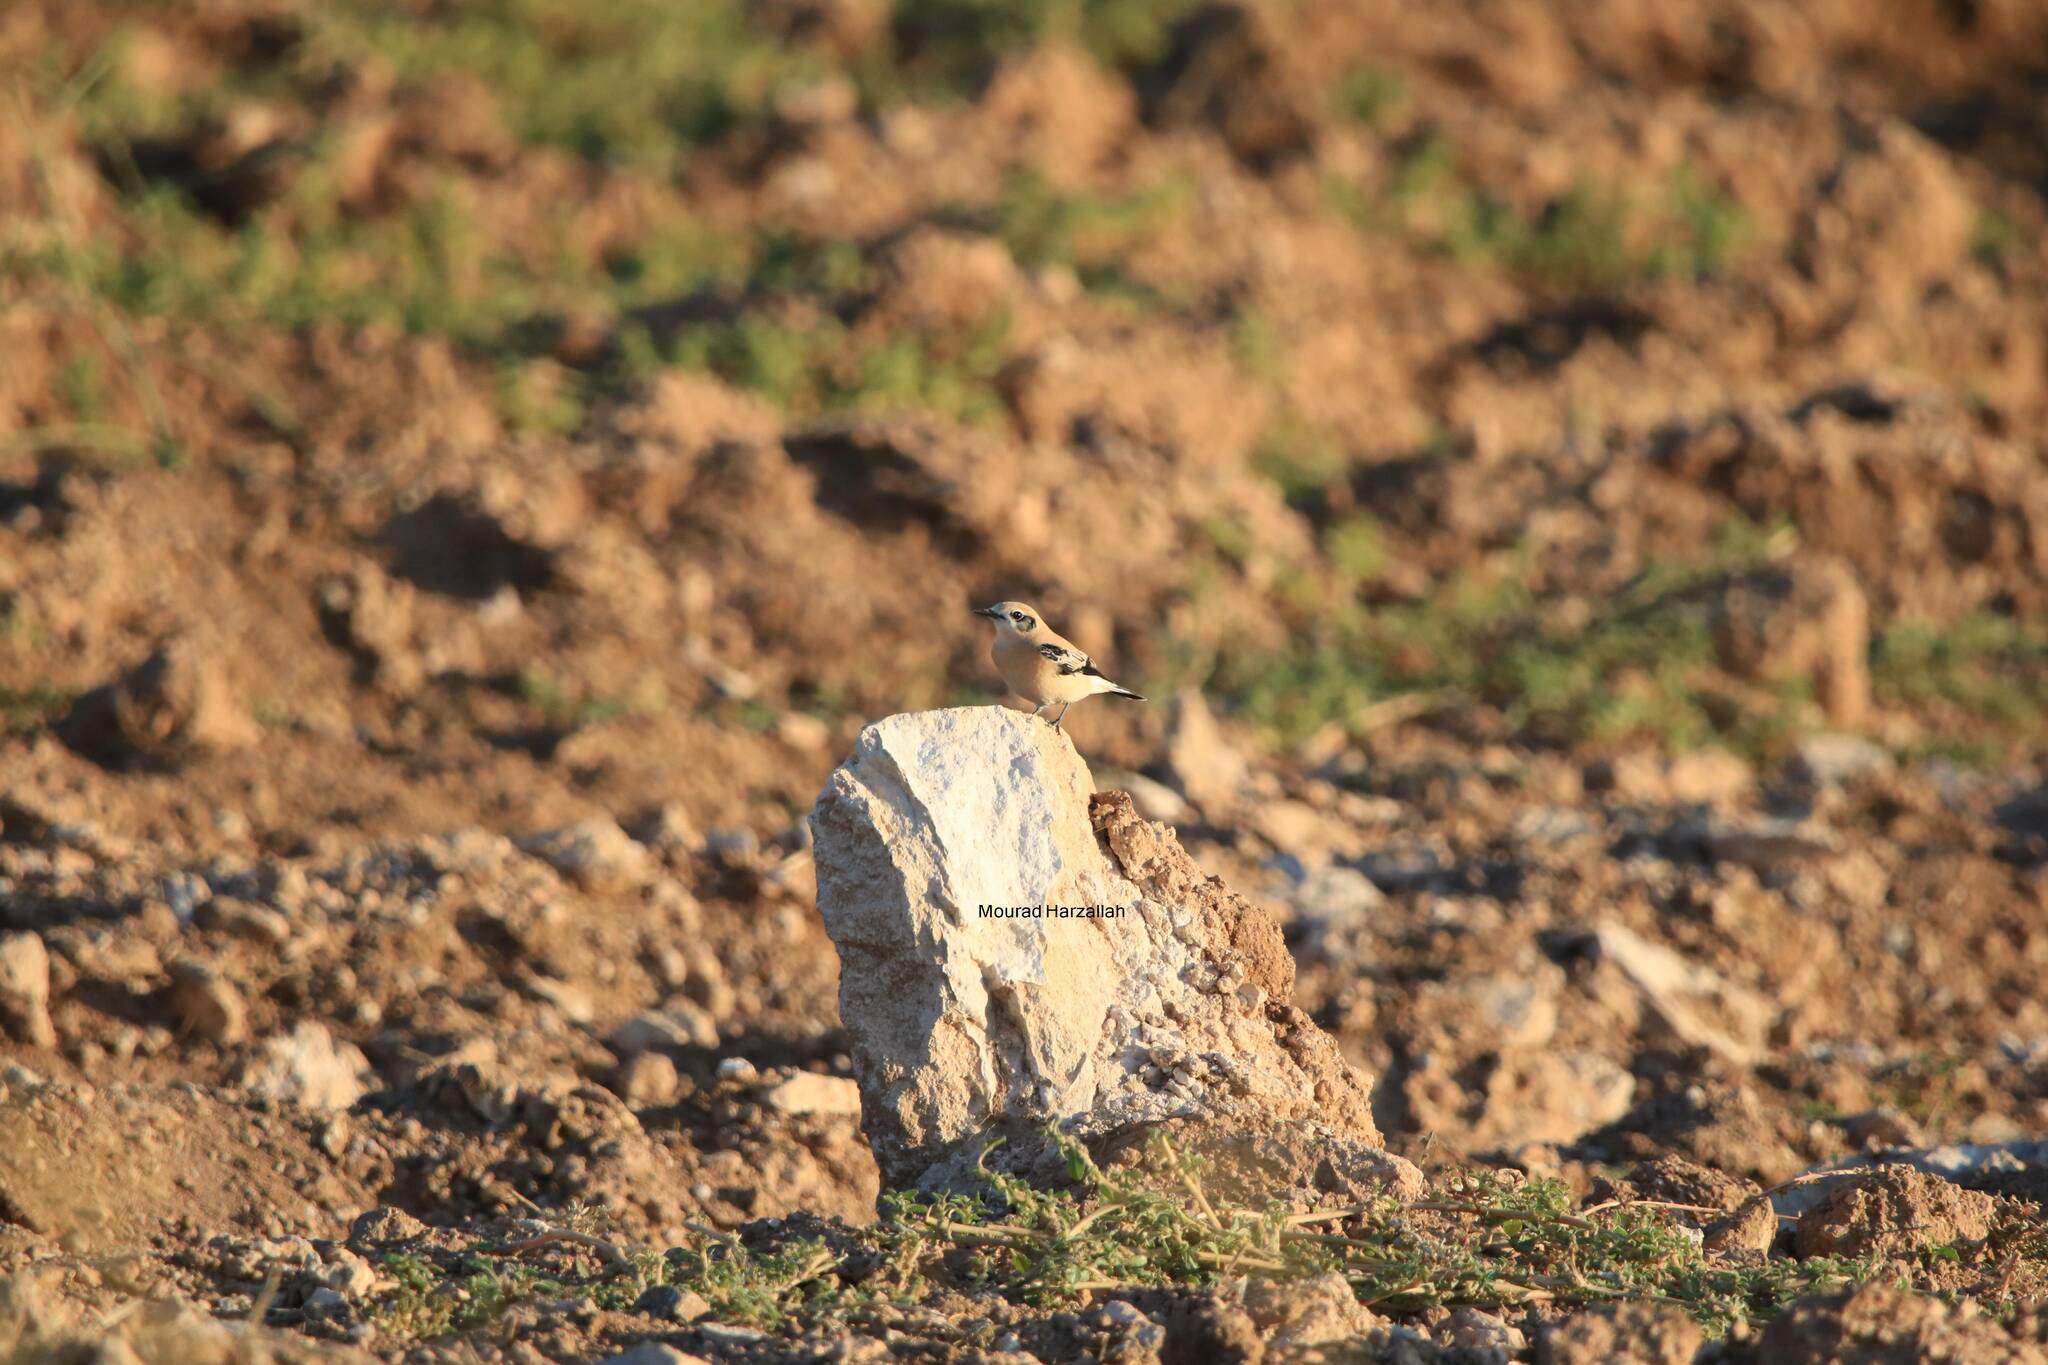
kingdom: Animalia
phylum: Chordata
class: Aves
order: Passeriformes
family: Muscicapidae
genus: Oenanthe
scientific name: Oenanthe hispanica
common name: Black-eared wheatear
